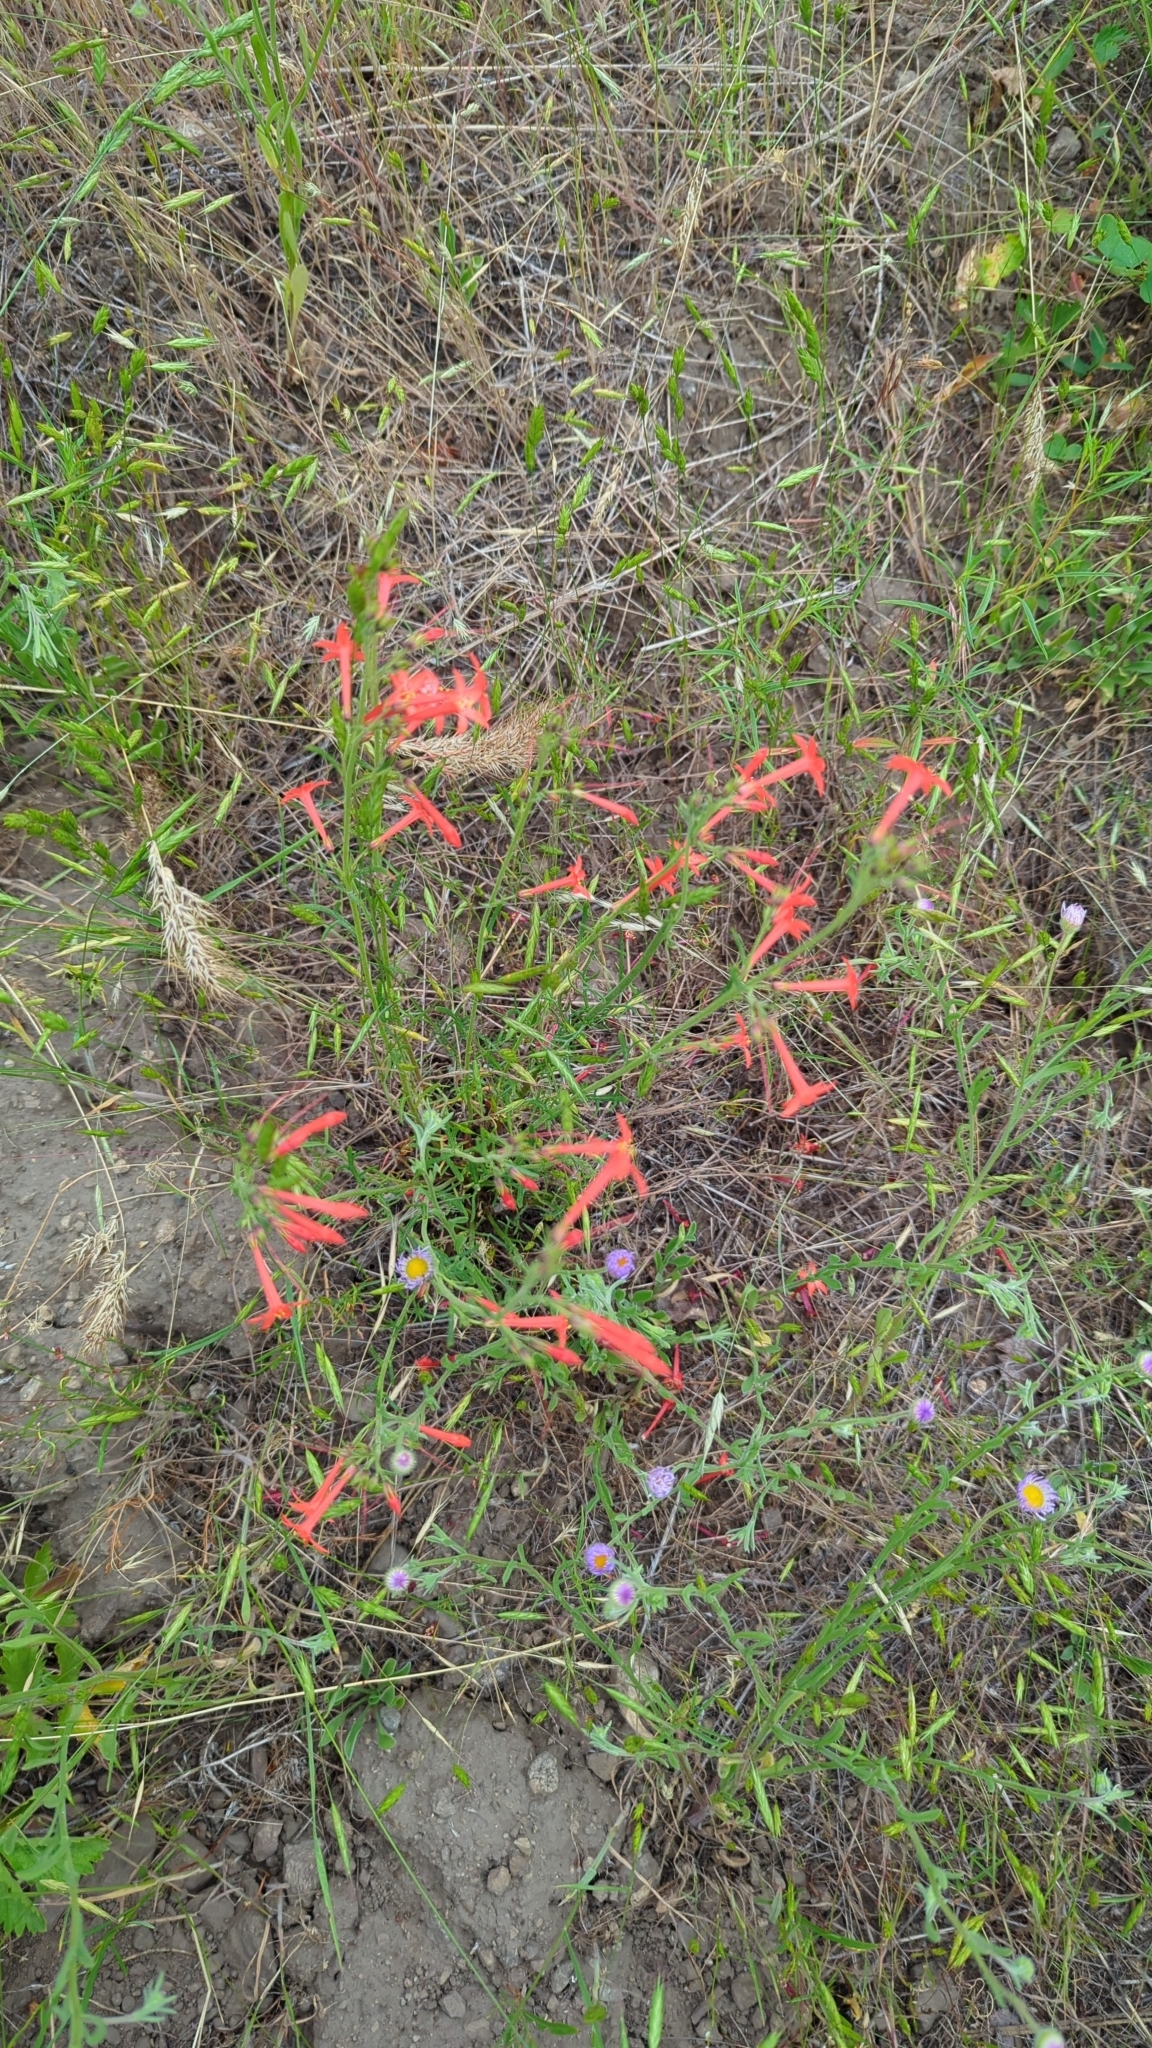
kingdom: Plantae
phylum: Tracheophyta
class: Magnoliopsida
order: Ericales
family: Polemoniaceae
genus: Ipomopsis
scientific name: Ipomopsis aggregata
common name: Scarlet gilia
